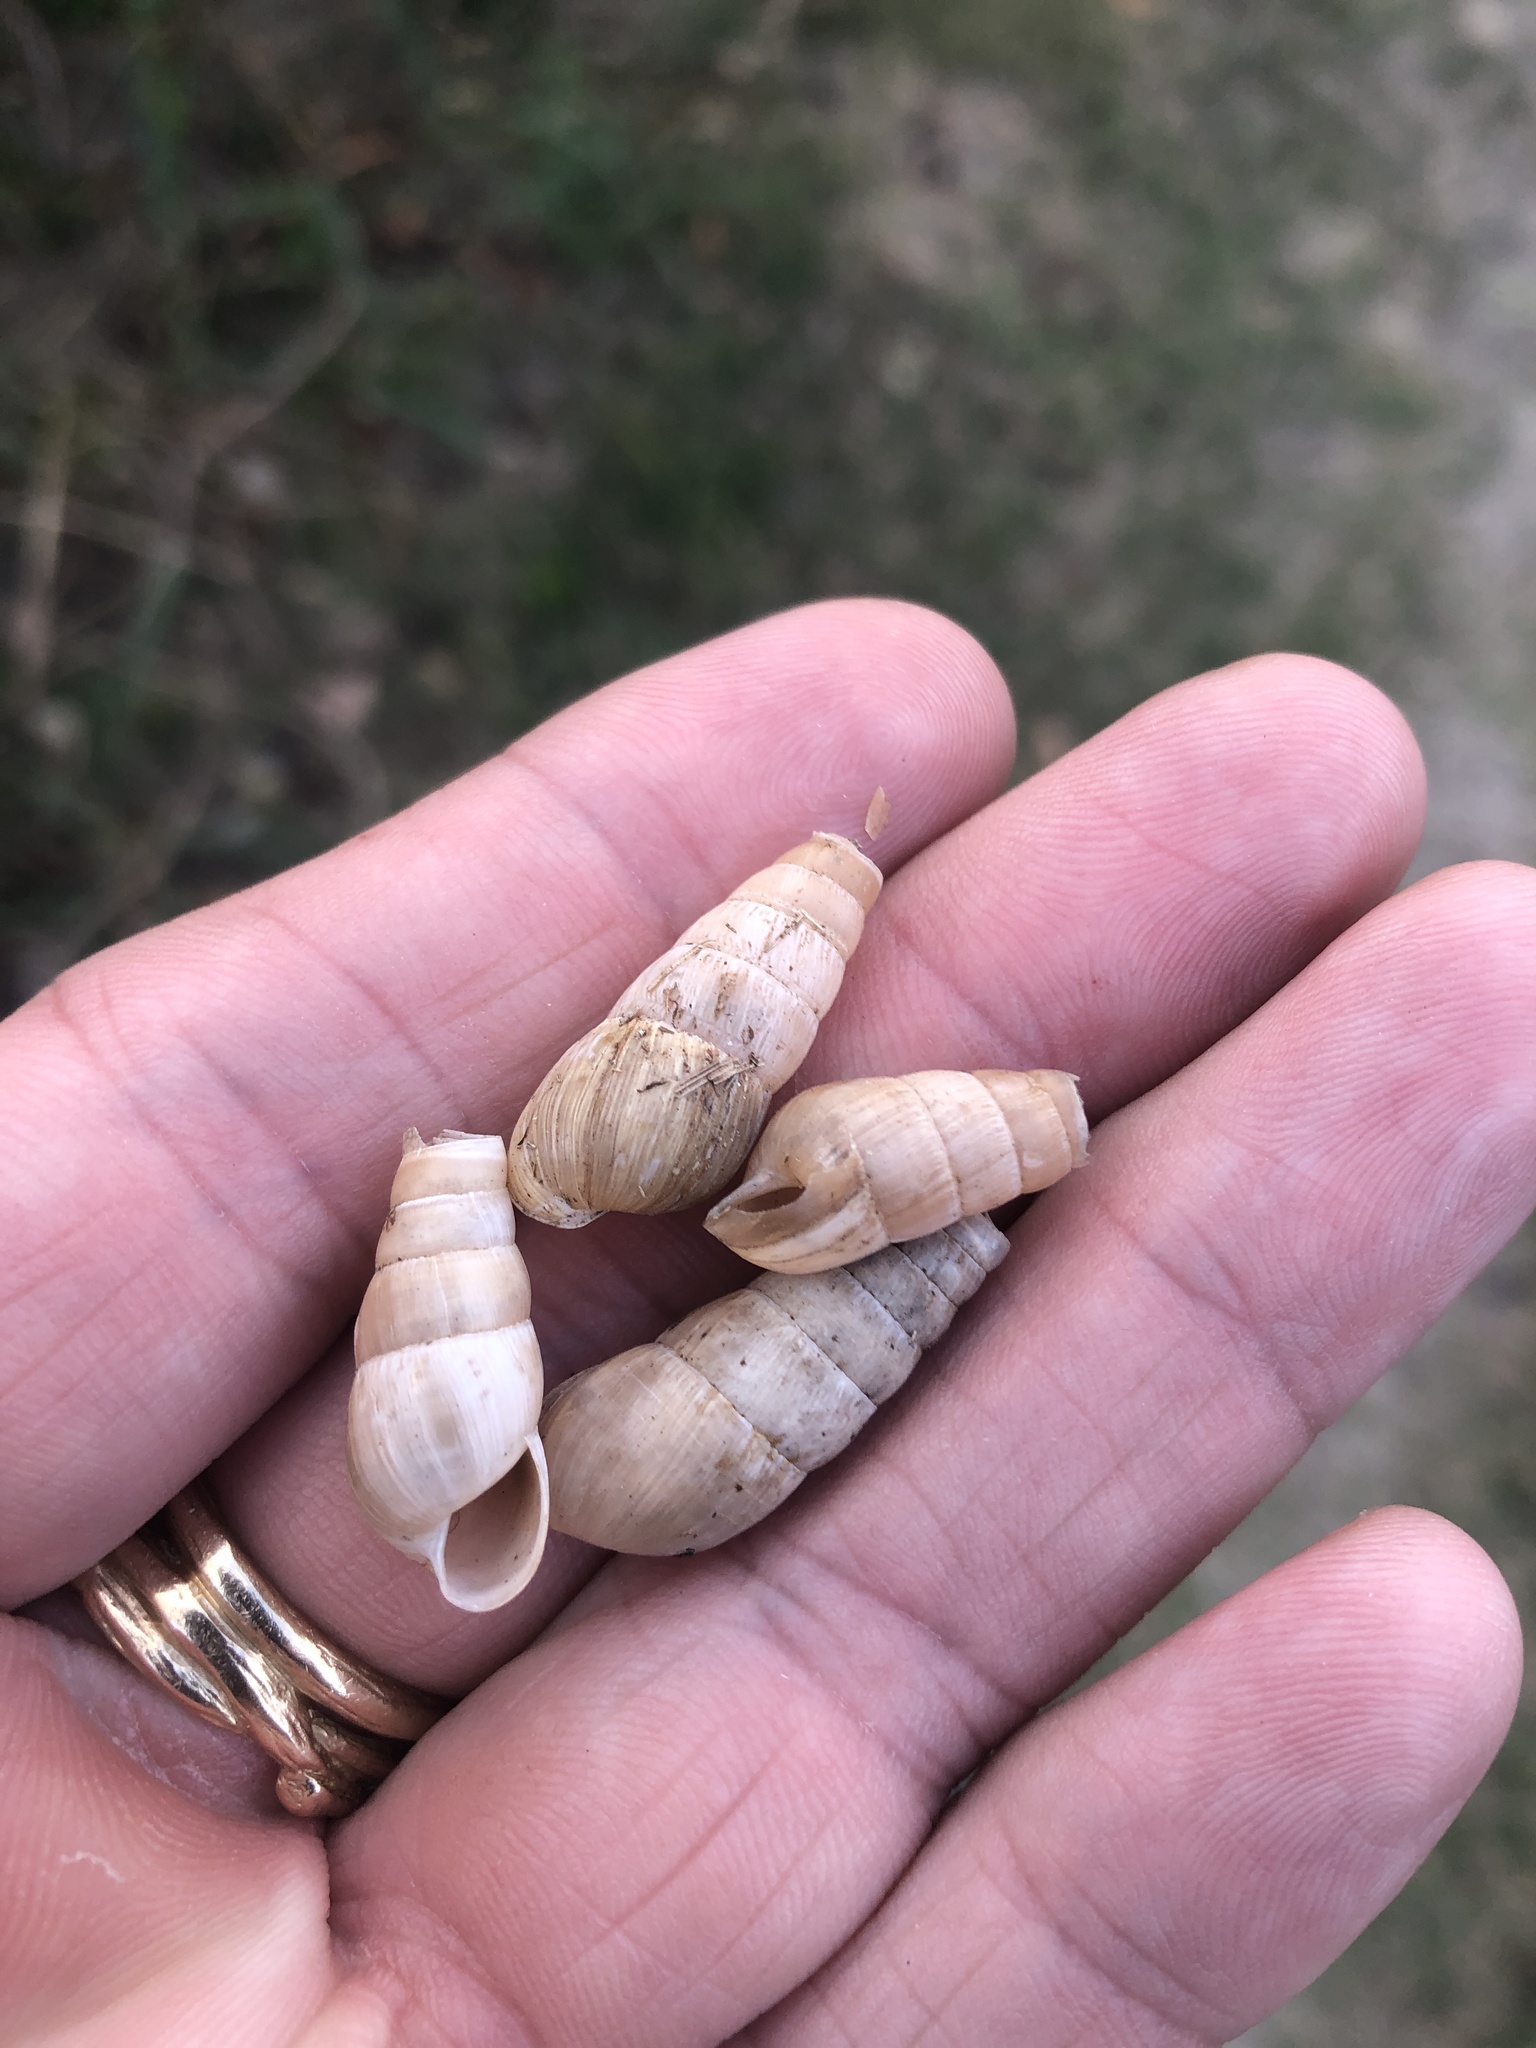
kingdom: Animalia
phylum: Mollusca
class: Gastropoda
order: Stylommatophora
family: Achatinidae
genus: Rumina
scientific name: Rumina decollata
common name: Decollate snail
